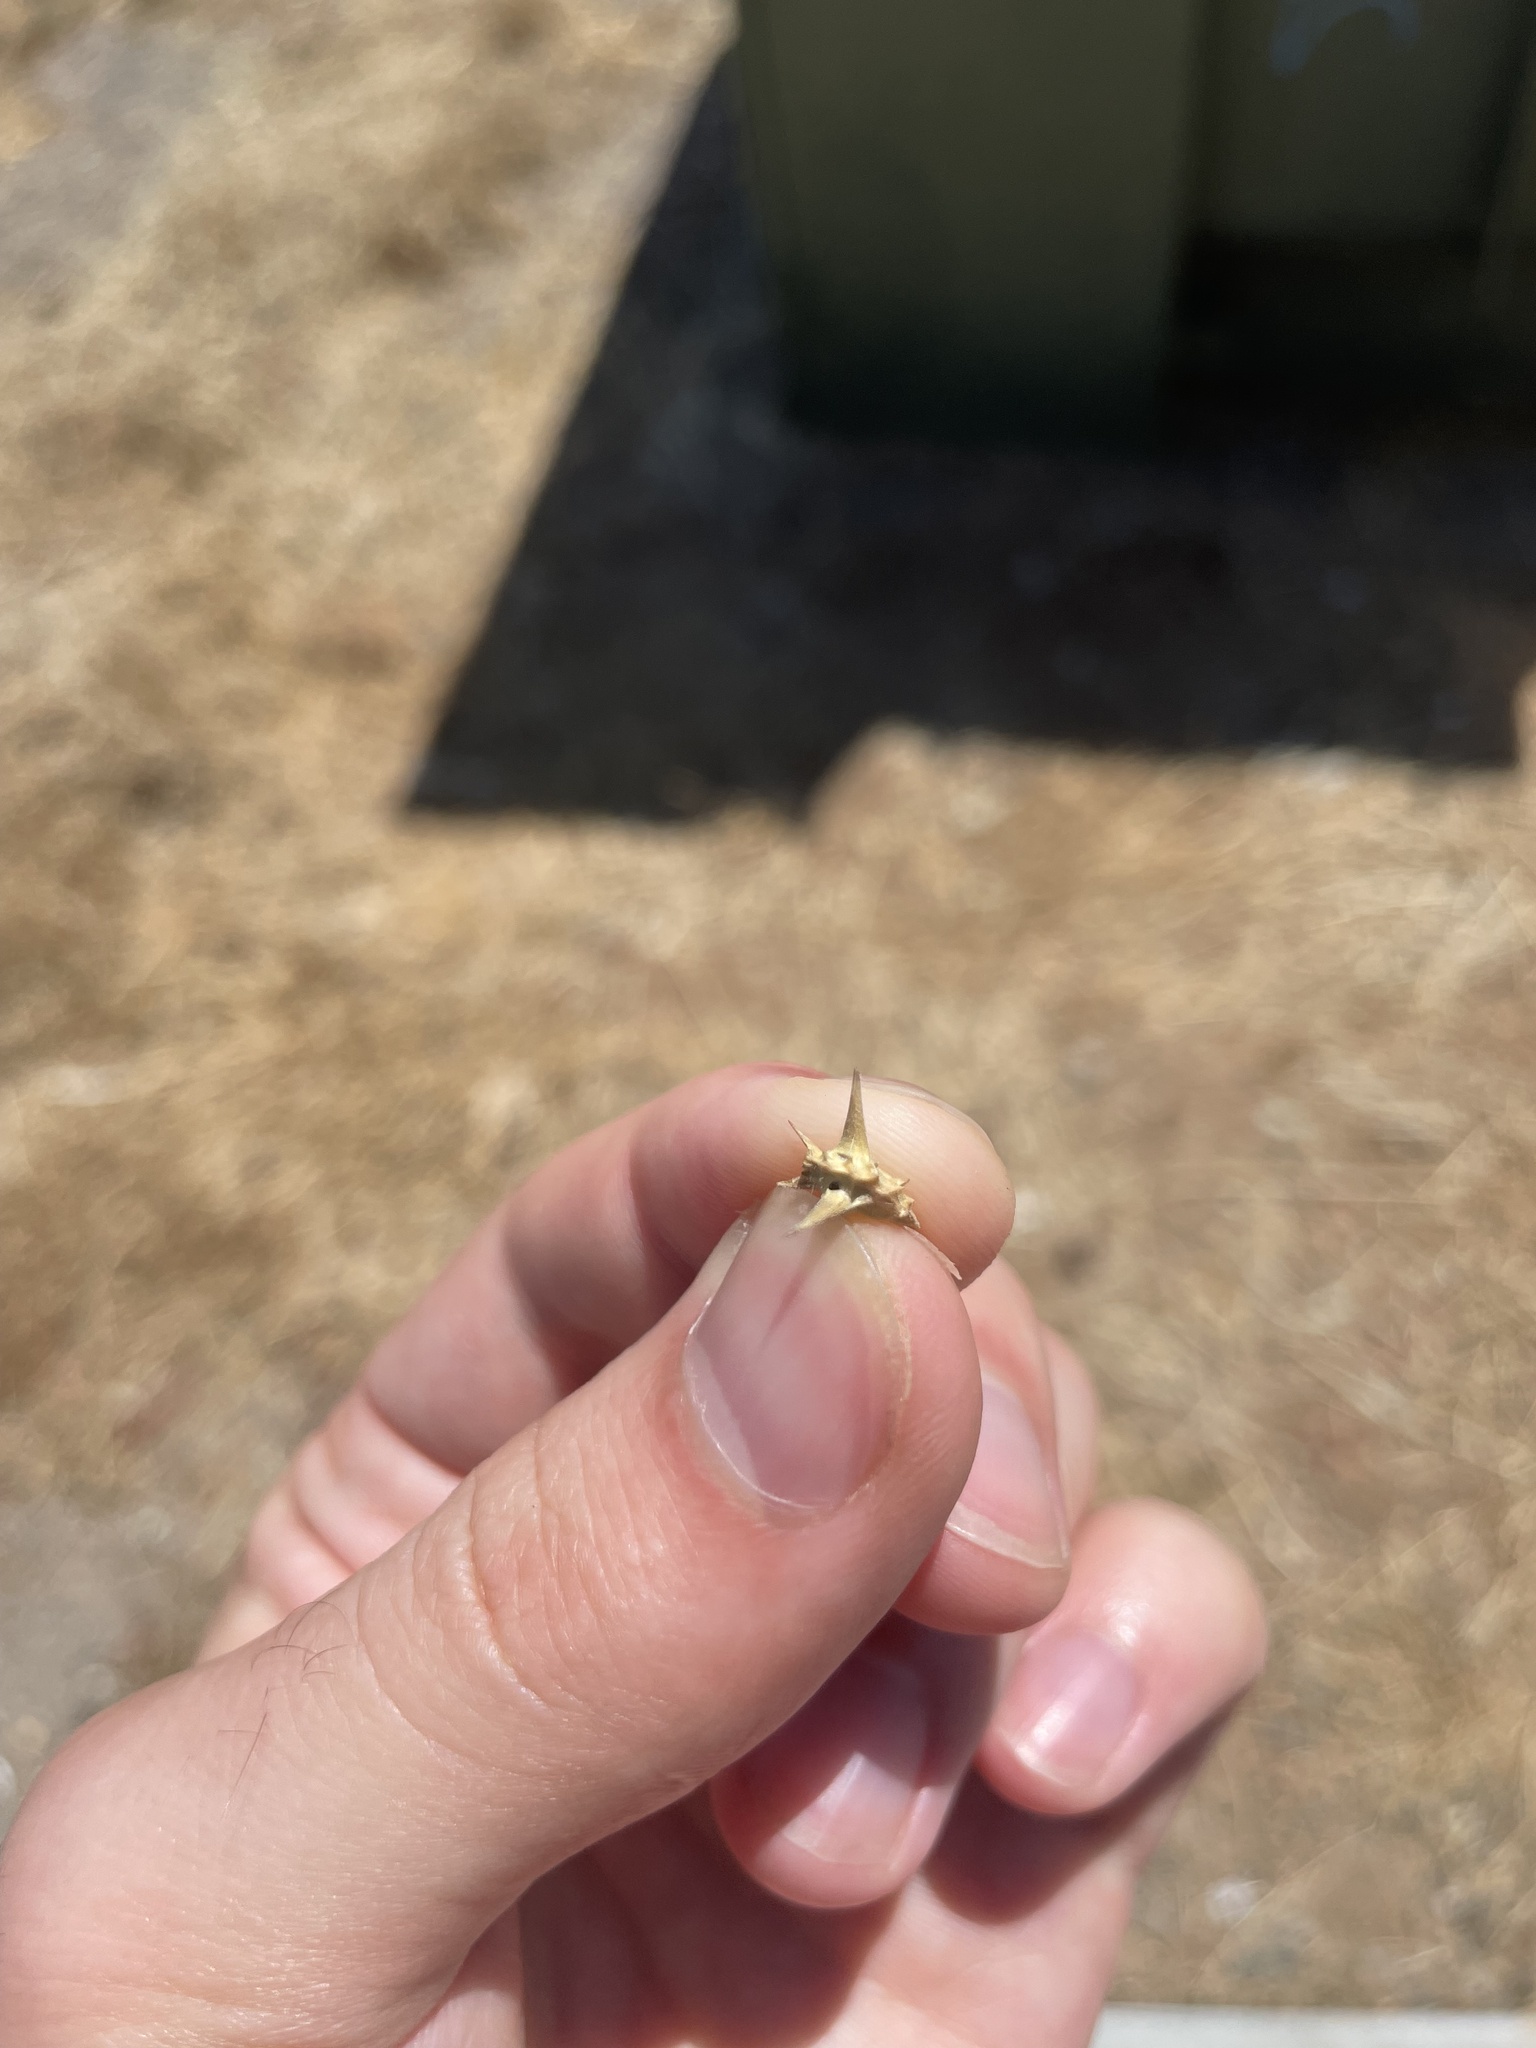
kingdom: Plantae
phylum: Tracheophyta
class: Magnoliopsida
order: Zygophyllales
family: Zygophyllaceae
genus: Tribulus
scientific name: Tribulus terrestris
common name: Puncturevine
